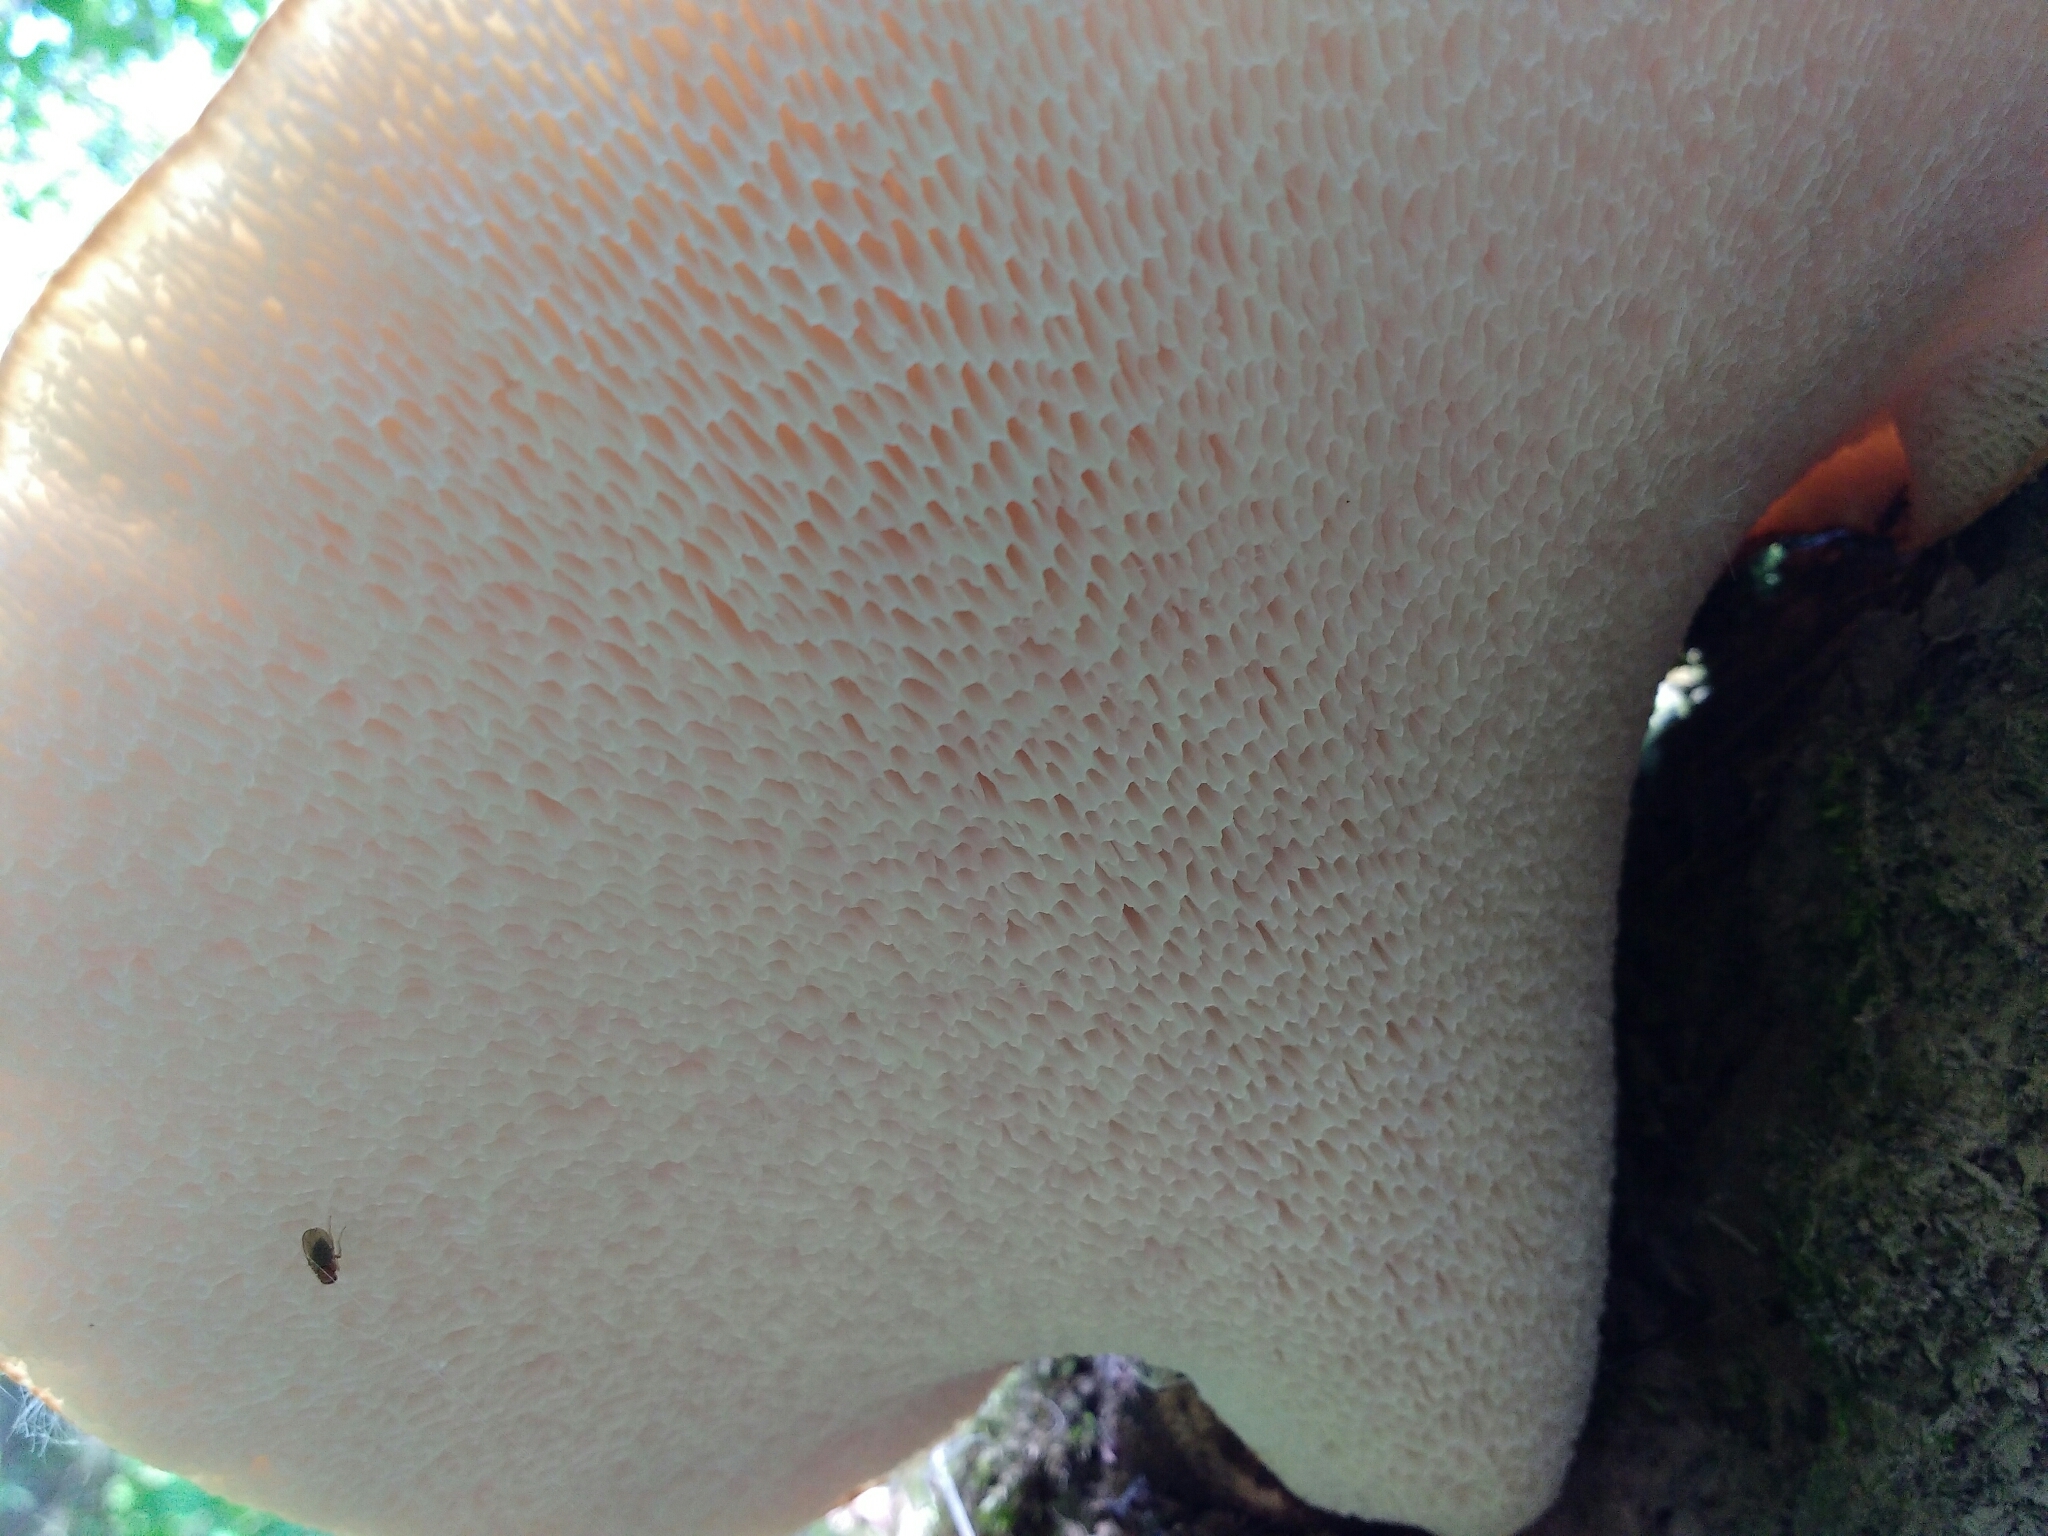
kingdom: Fungi
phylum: Basidiomycota
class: Agaricomycetes
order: Polyporales
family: Polyporaceae
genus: Cerioporus
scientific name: Cerioporus squamosus
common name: Dryad's saddle
